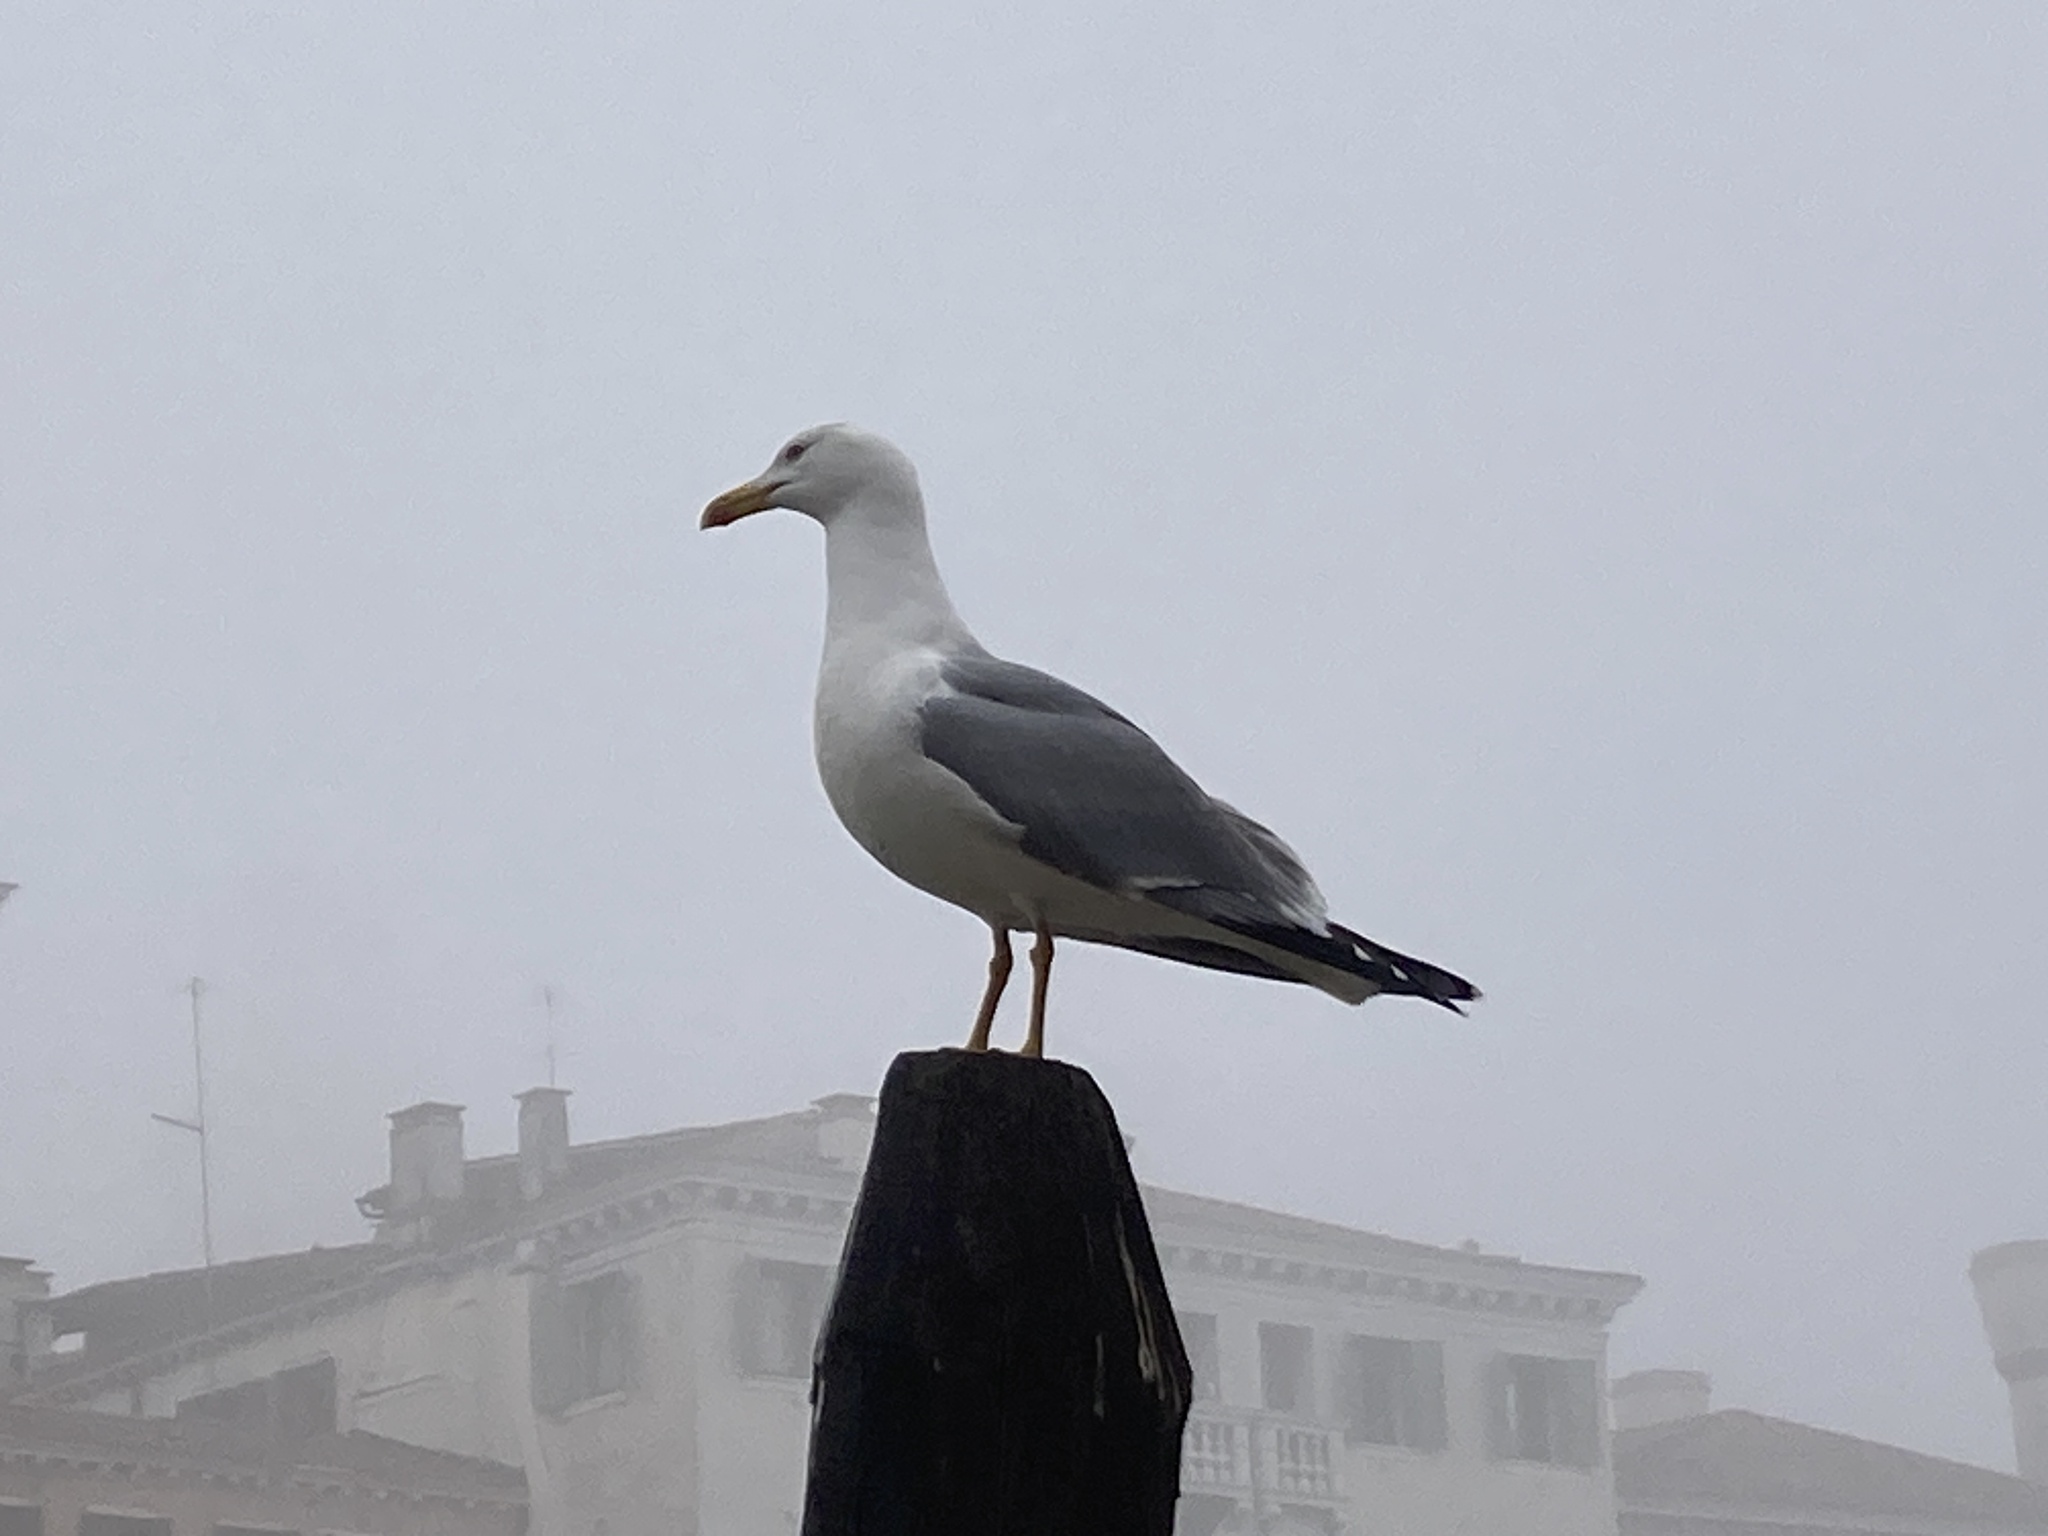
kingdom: Animalia
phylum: Chordata
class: Aves
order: Charadriiformes
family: Laridae
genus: Larus
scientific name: Larus michahellis
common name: Yellow-legged gull
